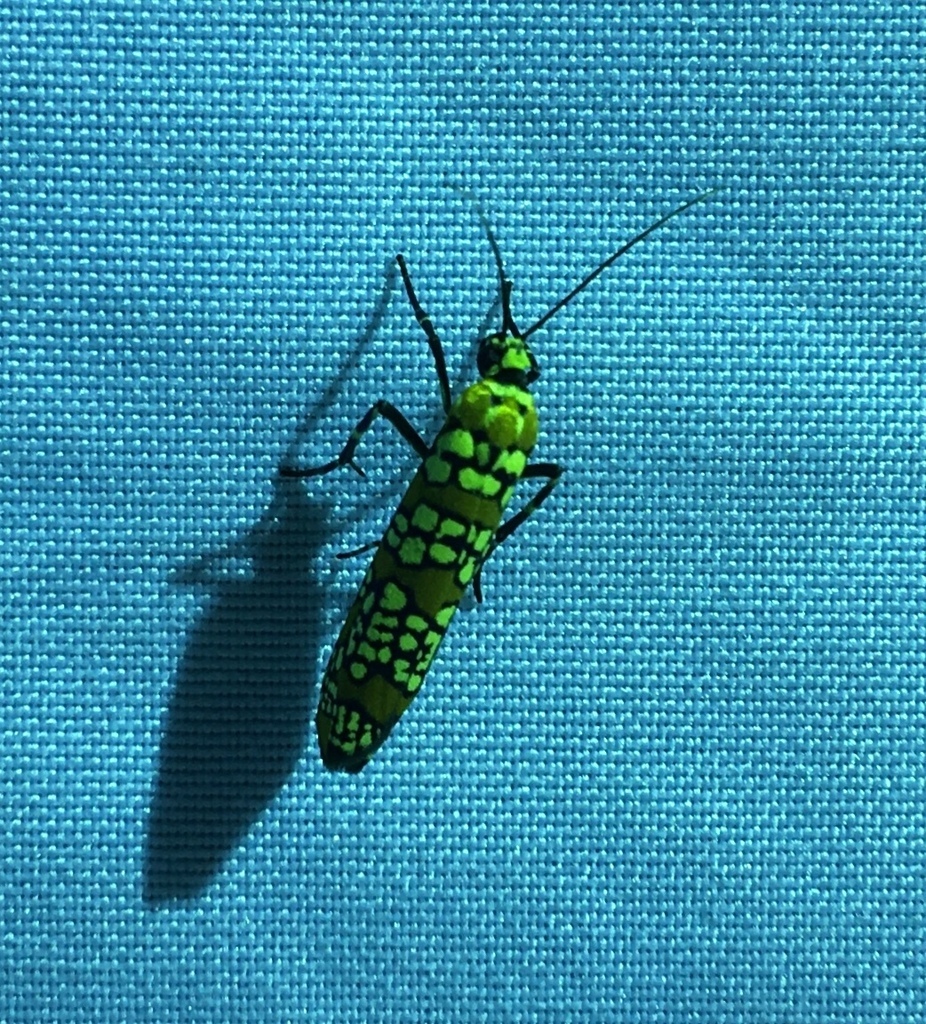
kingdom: Animalia
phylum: Arthropoda
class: Insecta
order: Lepidoptera
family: Attevidae
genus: Atteva
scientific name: Atteva punctella
